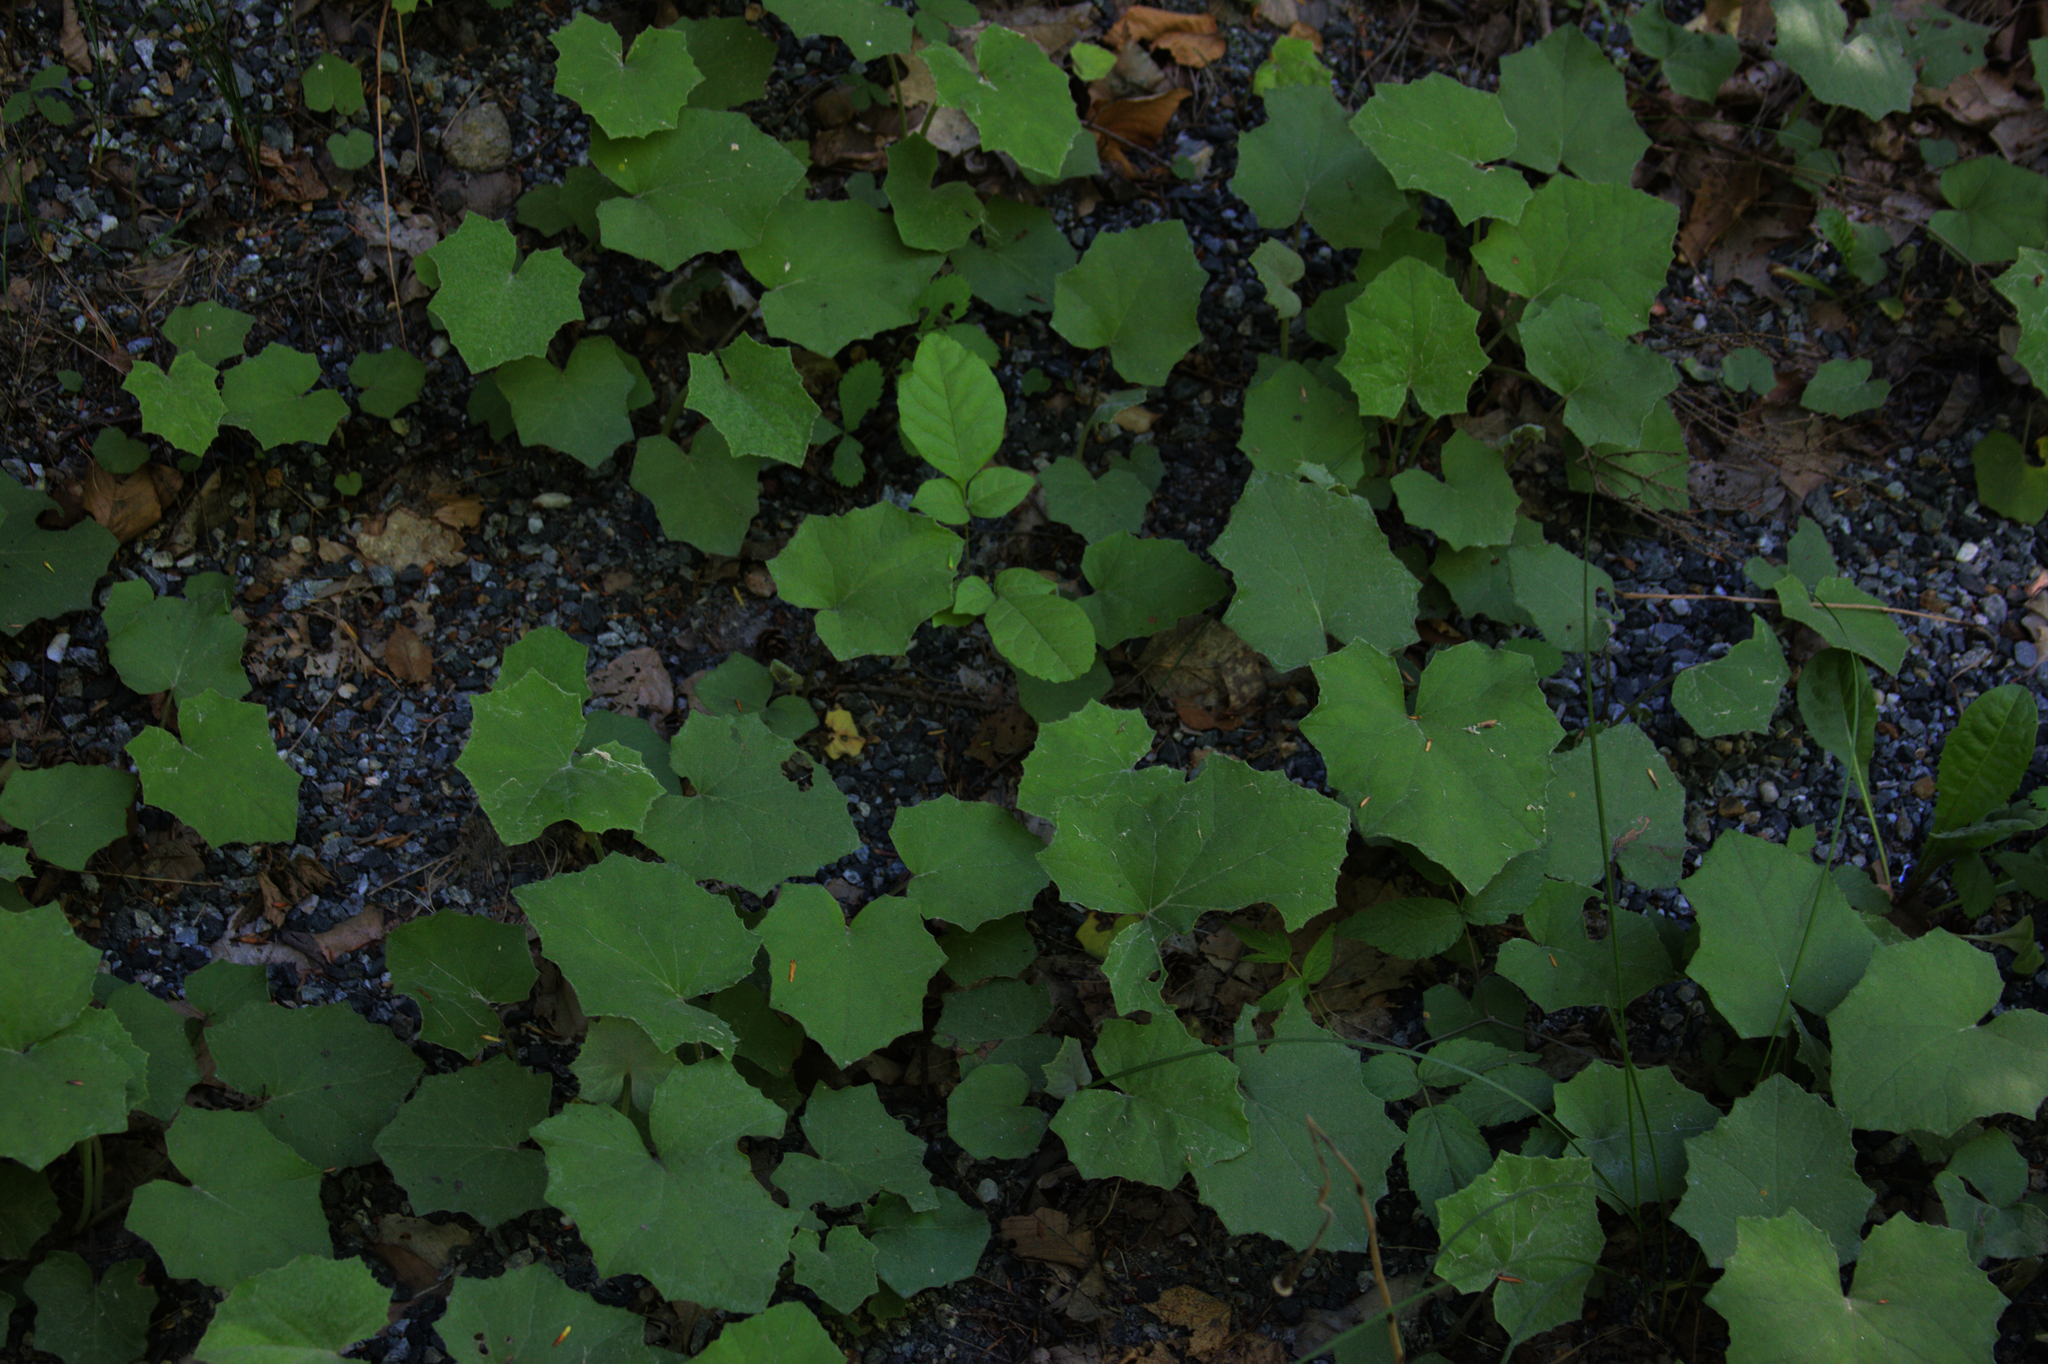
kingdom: Plantae
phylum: Tracheophyta
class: Magnoliopsida
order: Asterales
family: Asteraceae
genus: Tussilago
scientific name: Tussilago farfara
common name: Coltsfoot
